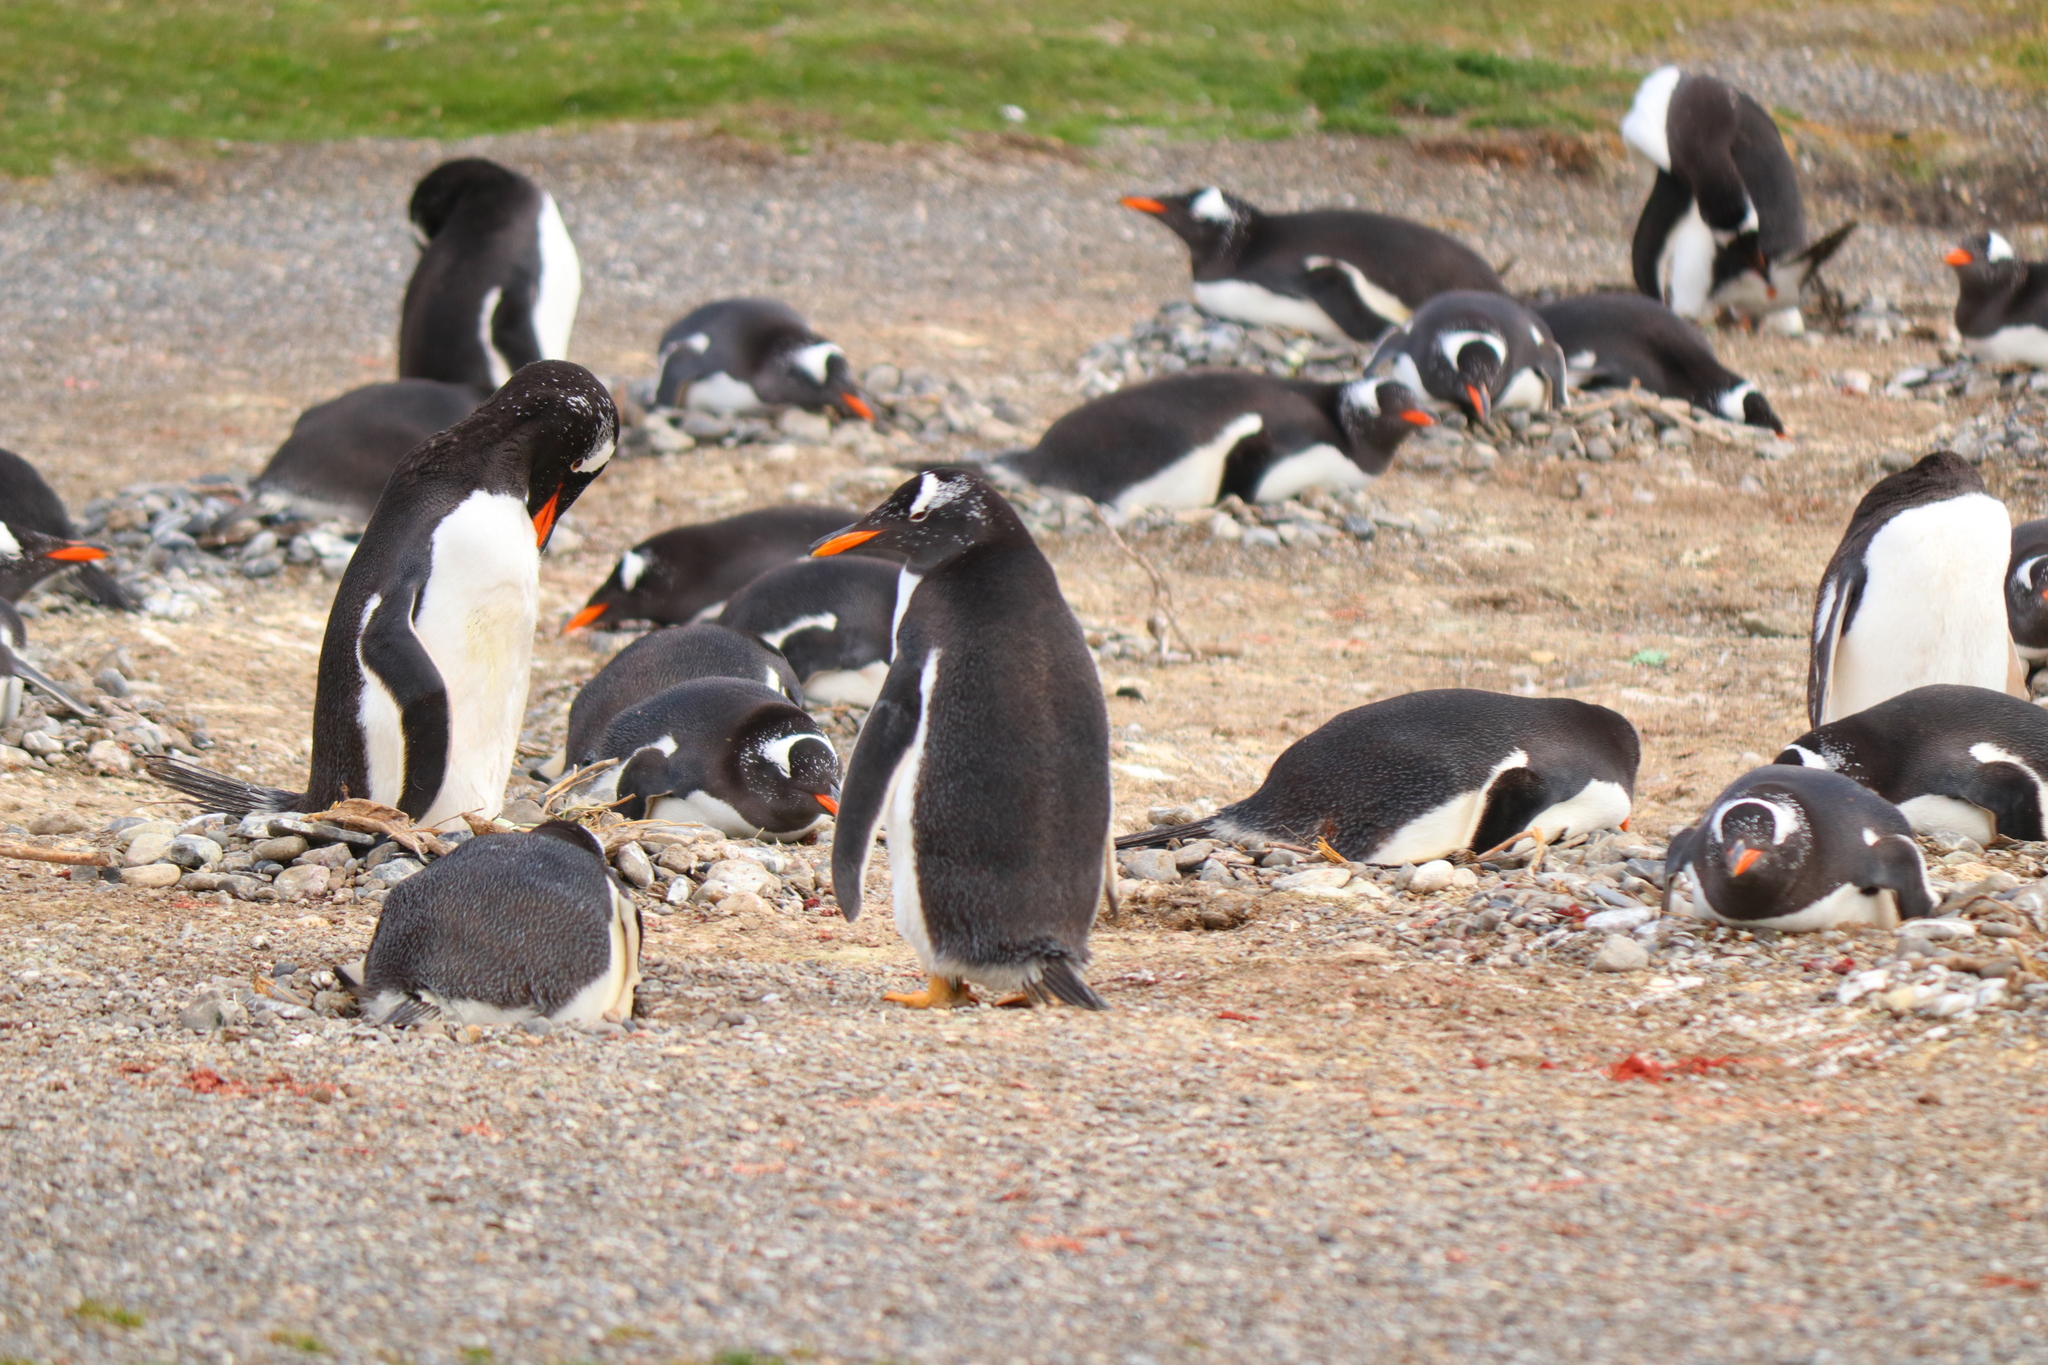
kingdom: Animalia
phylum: Chordata
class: Aves
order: Sphenisciformes
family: Spheniscidae
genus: Pygoscelis
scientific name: Pygoscelis papua
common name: Gentoo penguin
